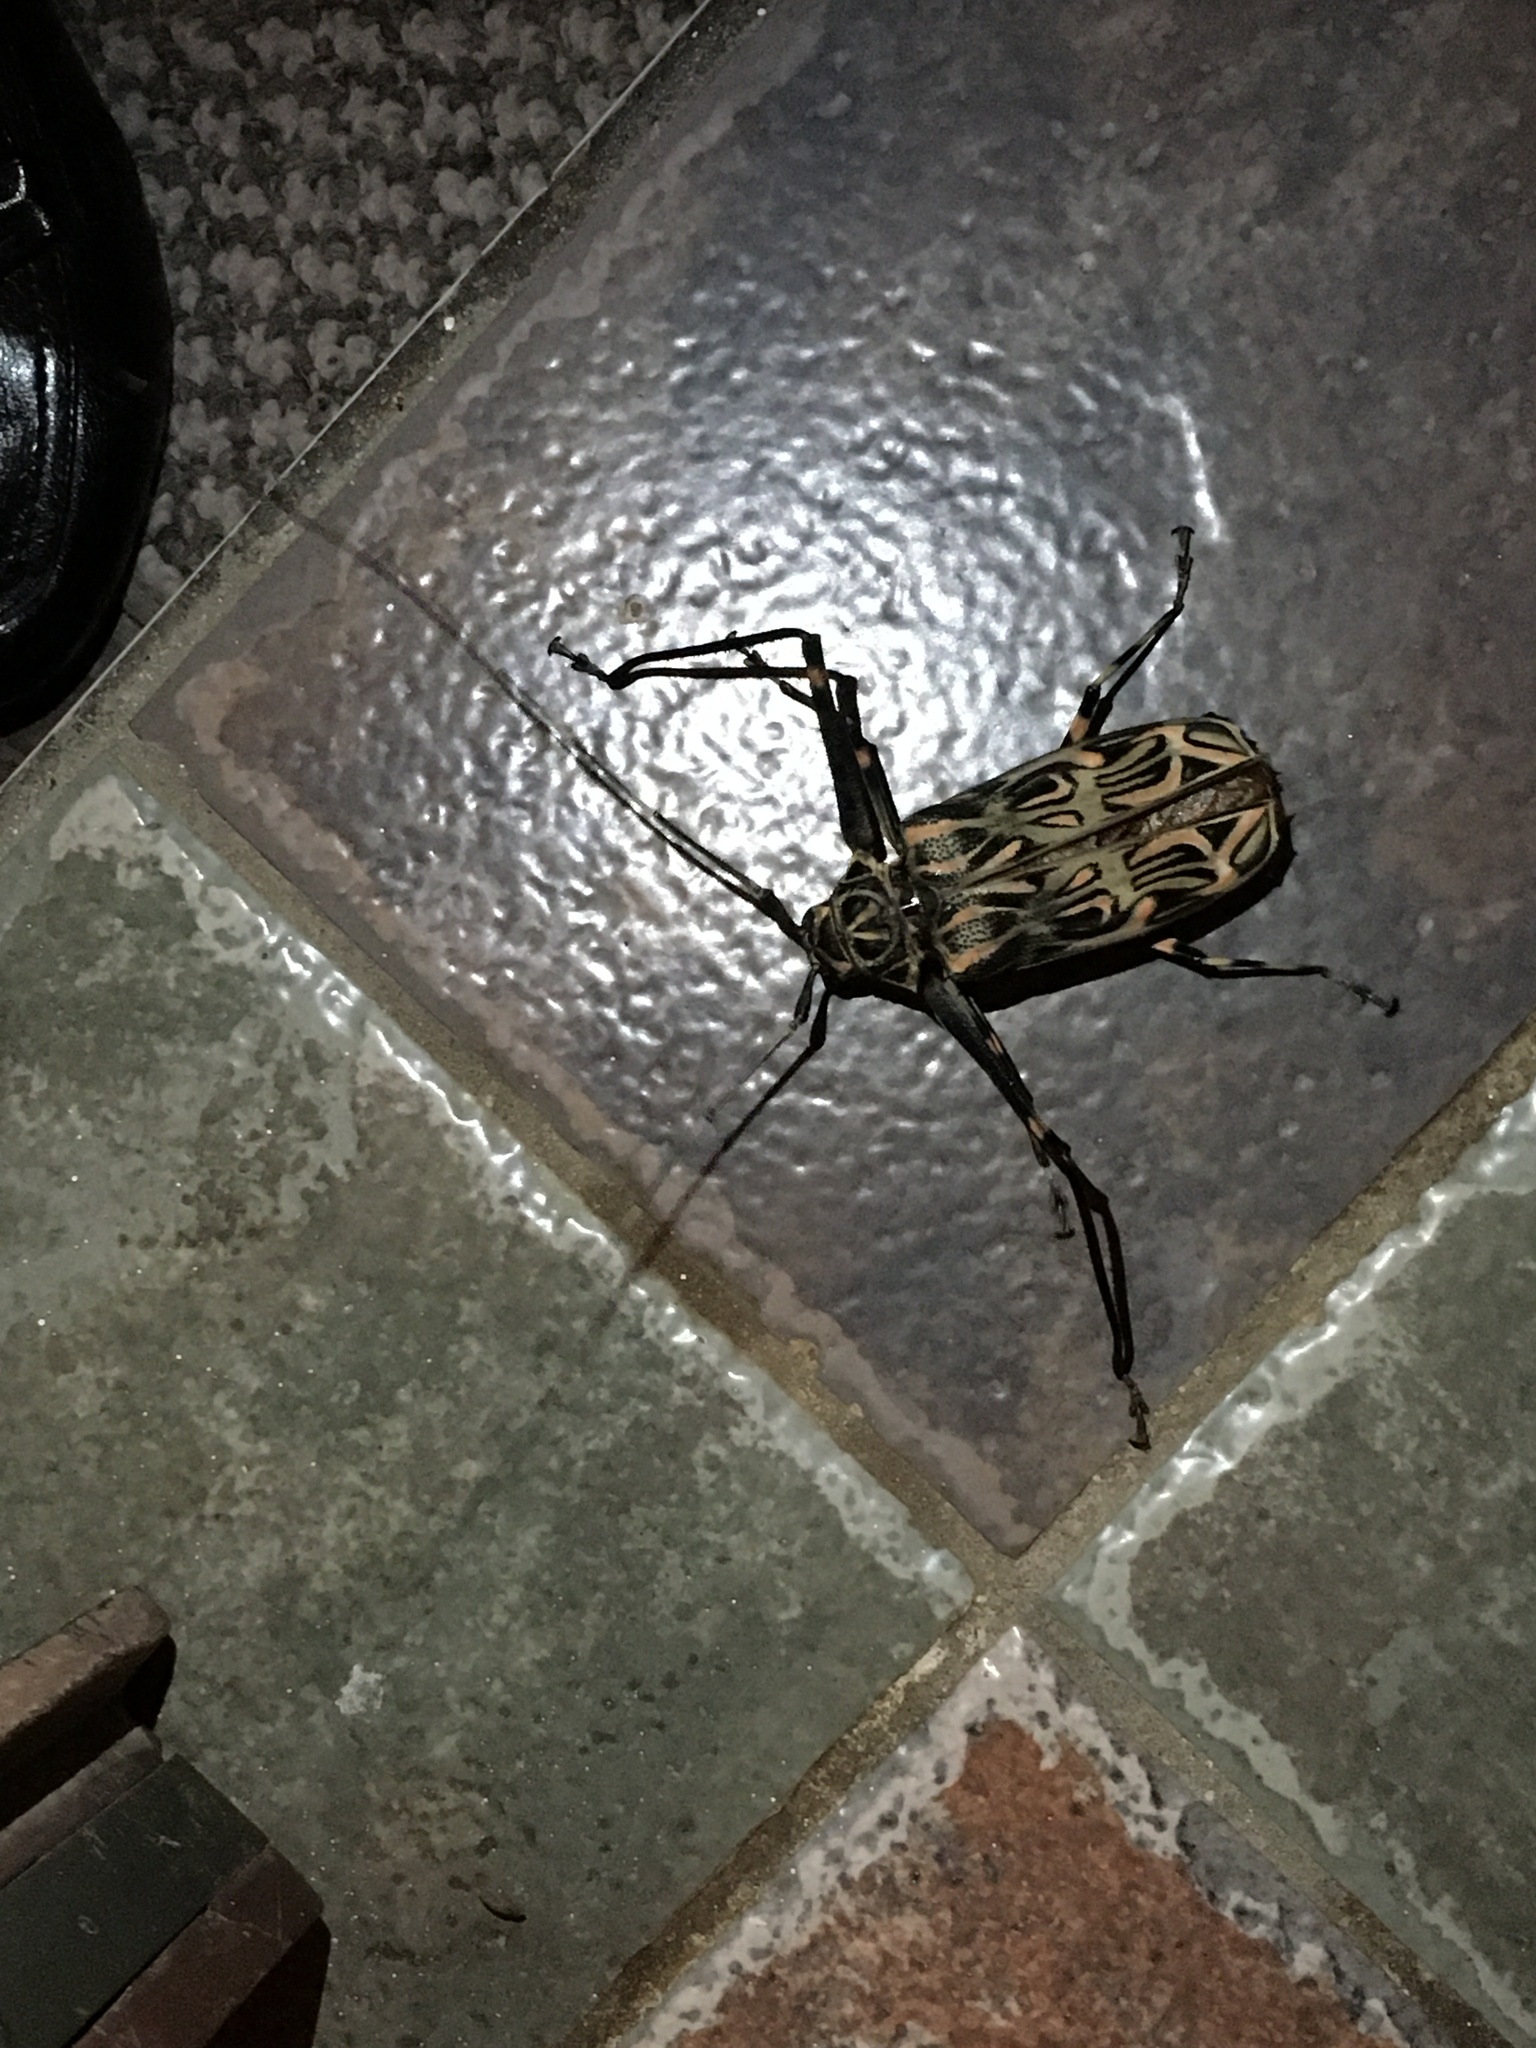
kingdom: Animalia
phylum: Arthropoda
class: Insecta
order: Coleoptera
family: Cerambycidae
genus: Acrocinus
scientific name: Acrocinus longimanus
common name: Arlequin
